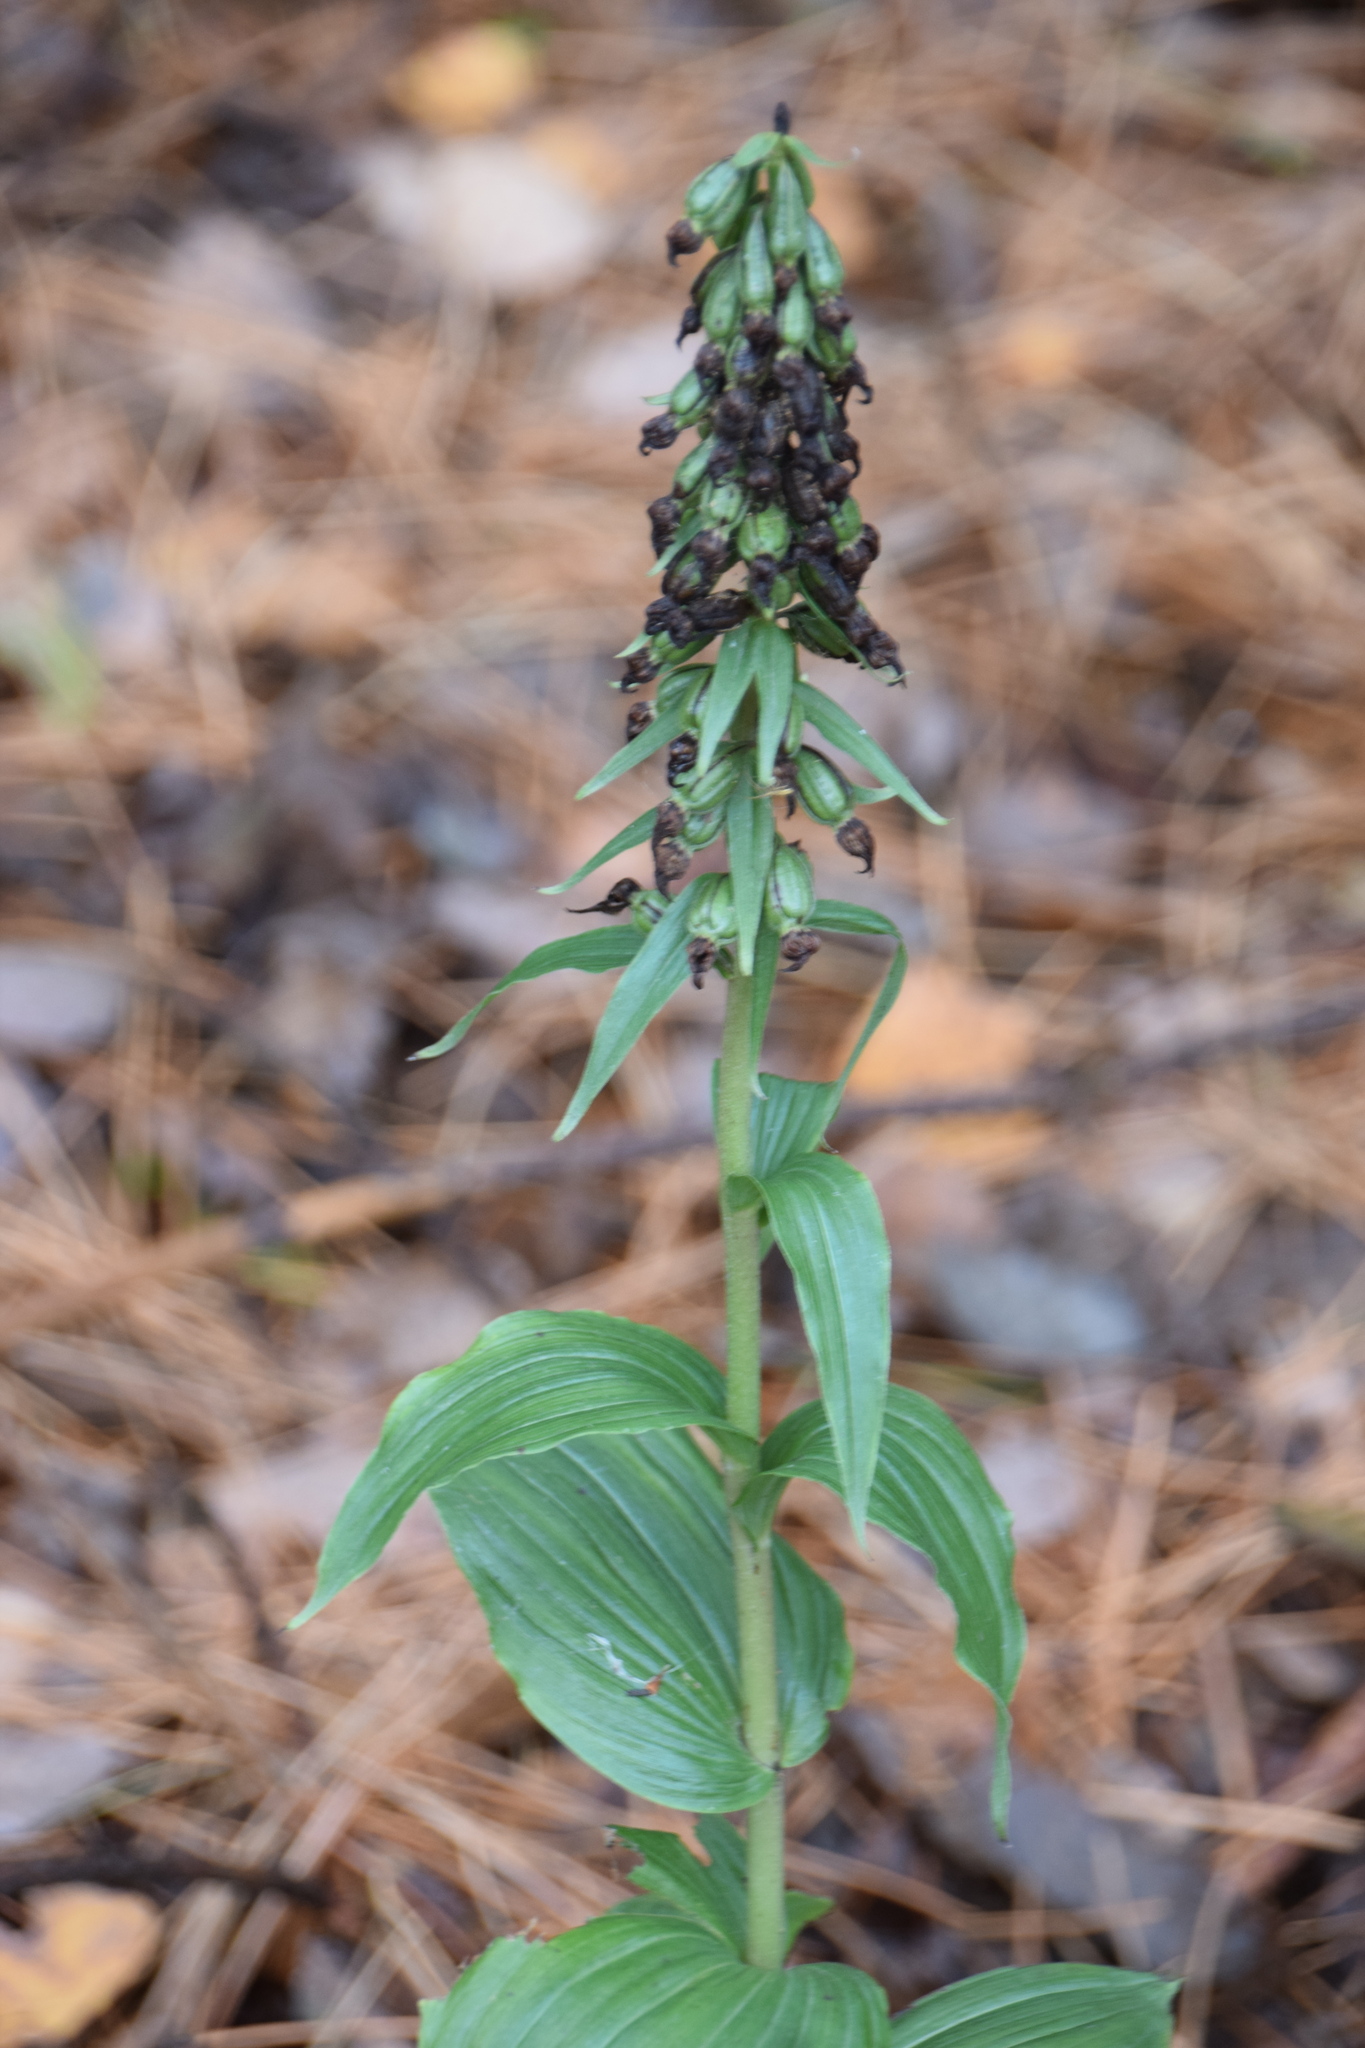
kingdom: Plantae
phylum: Tracheophyta
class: Liliopsida
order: Asparagales
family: Orchidaceae
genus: Epipactis
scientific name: Epipactis helleborine
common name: Broad-leaved helleborine
